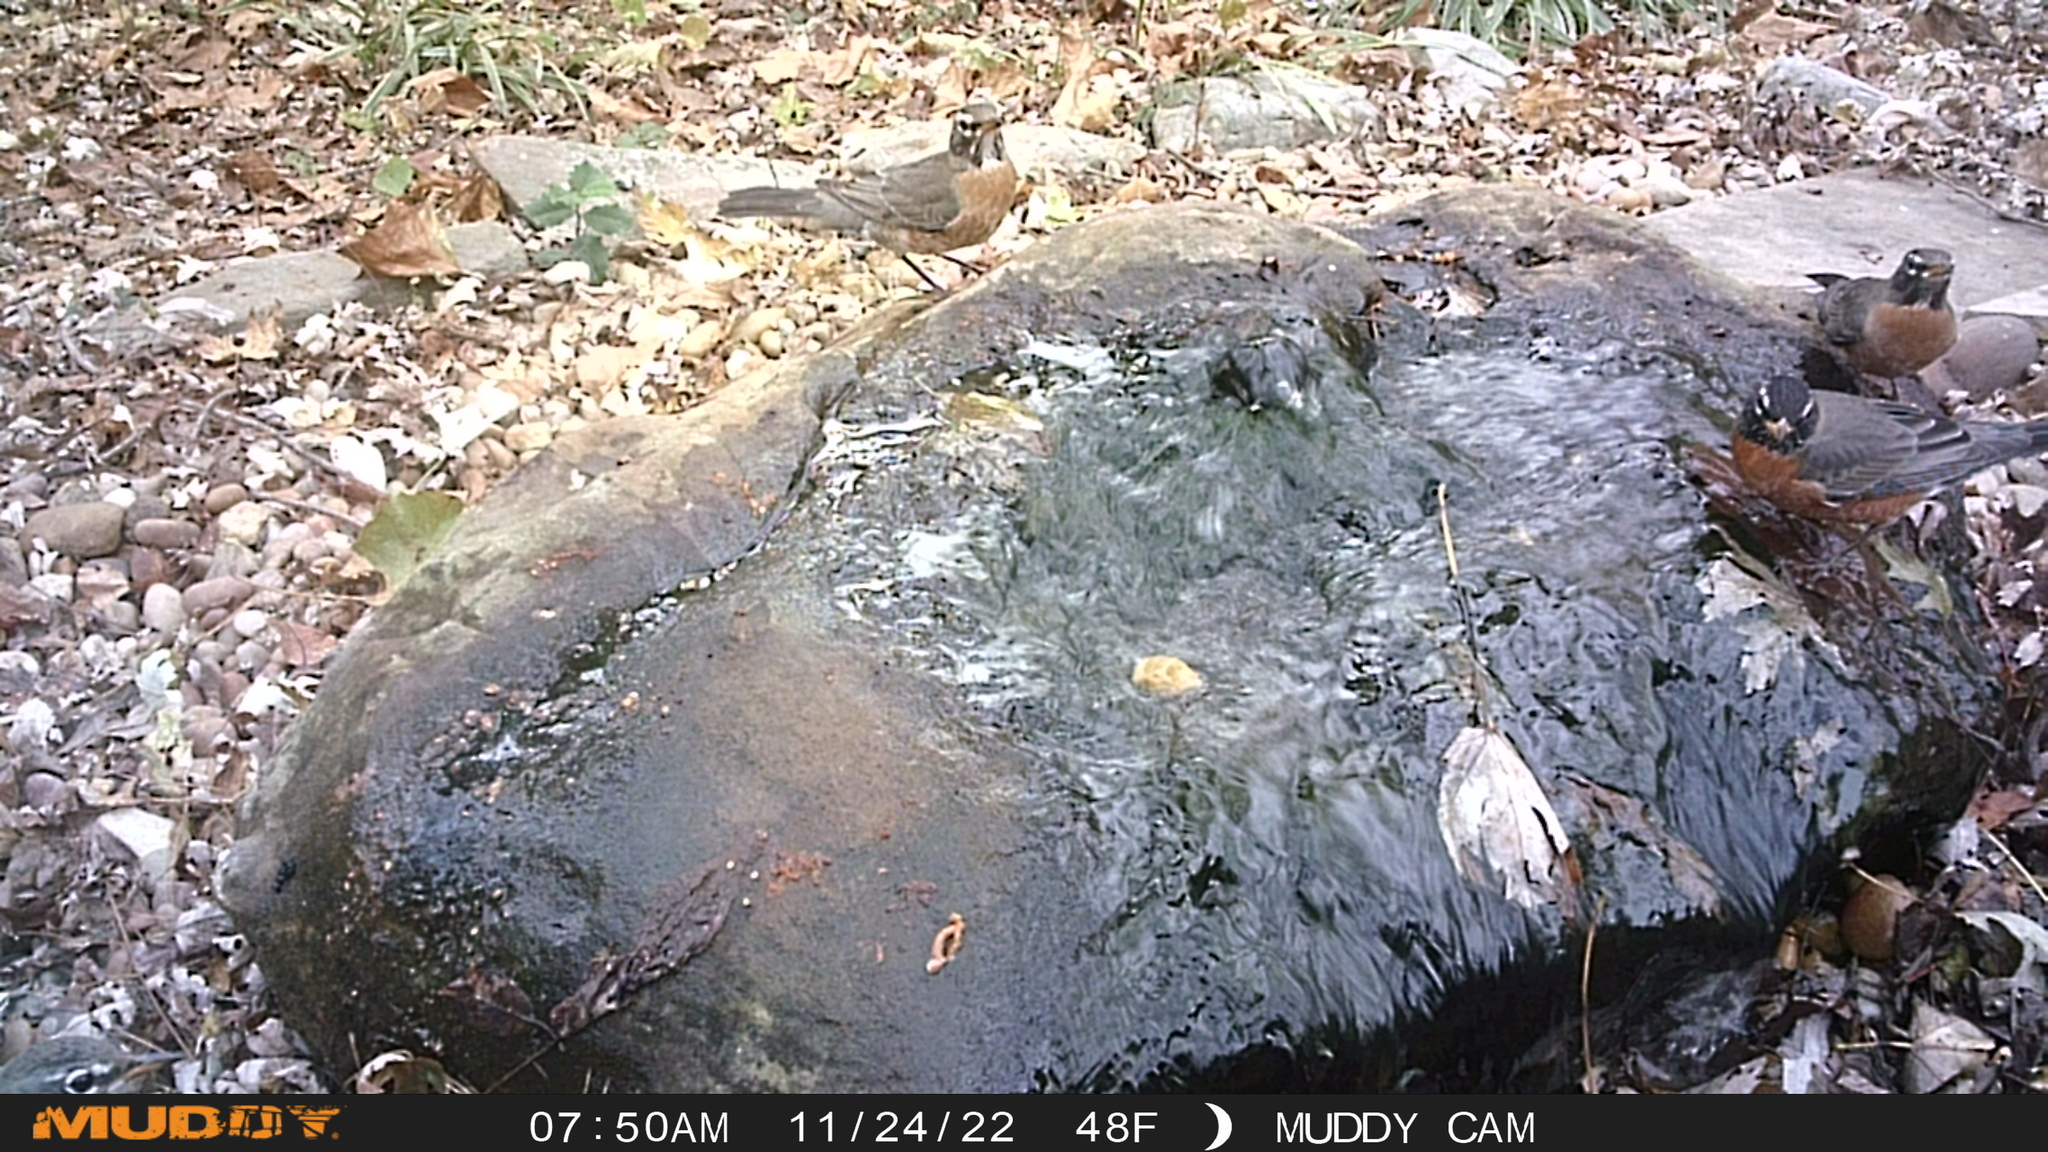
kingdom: Animalia
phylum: Chordata
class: Aves
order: Passeriformes
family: Turdidae
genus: Turdus
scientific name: Turdus migratorius
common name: American robin
